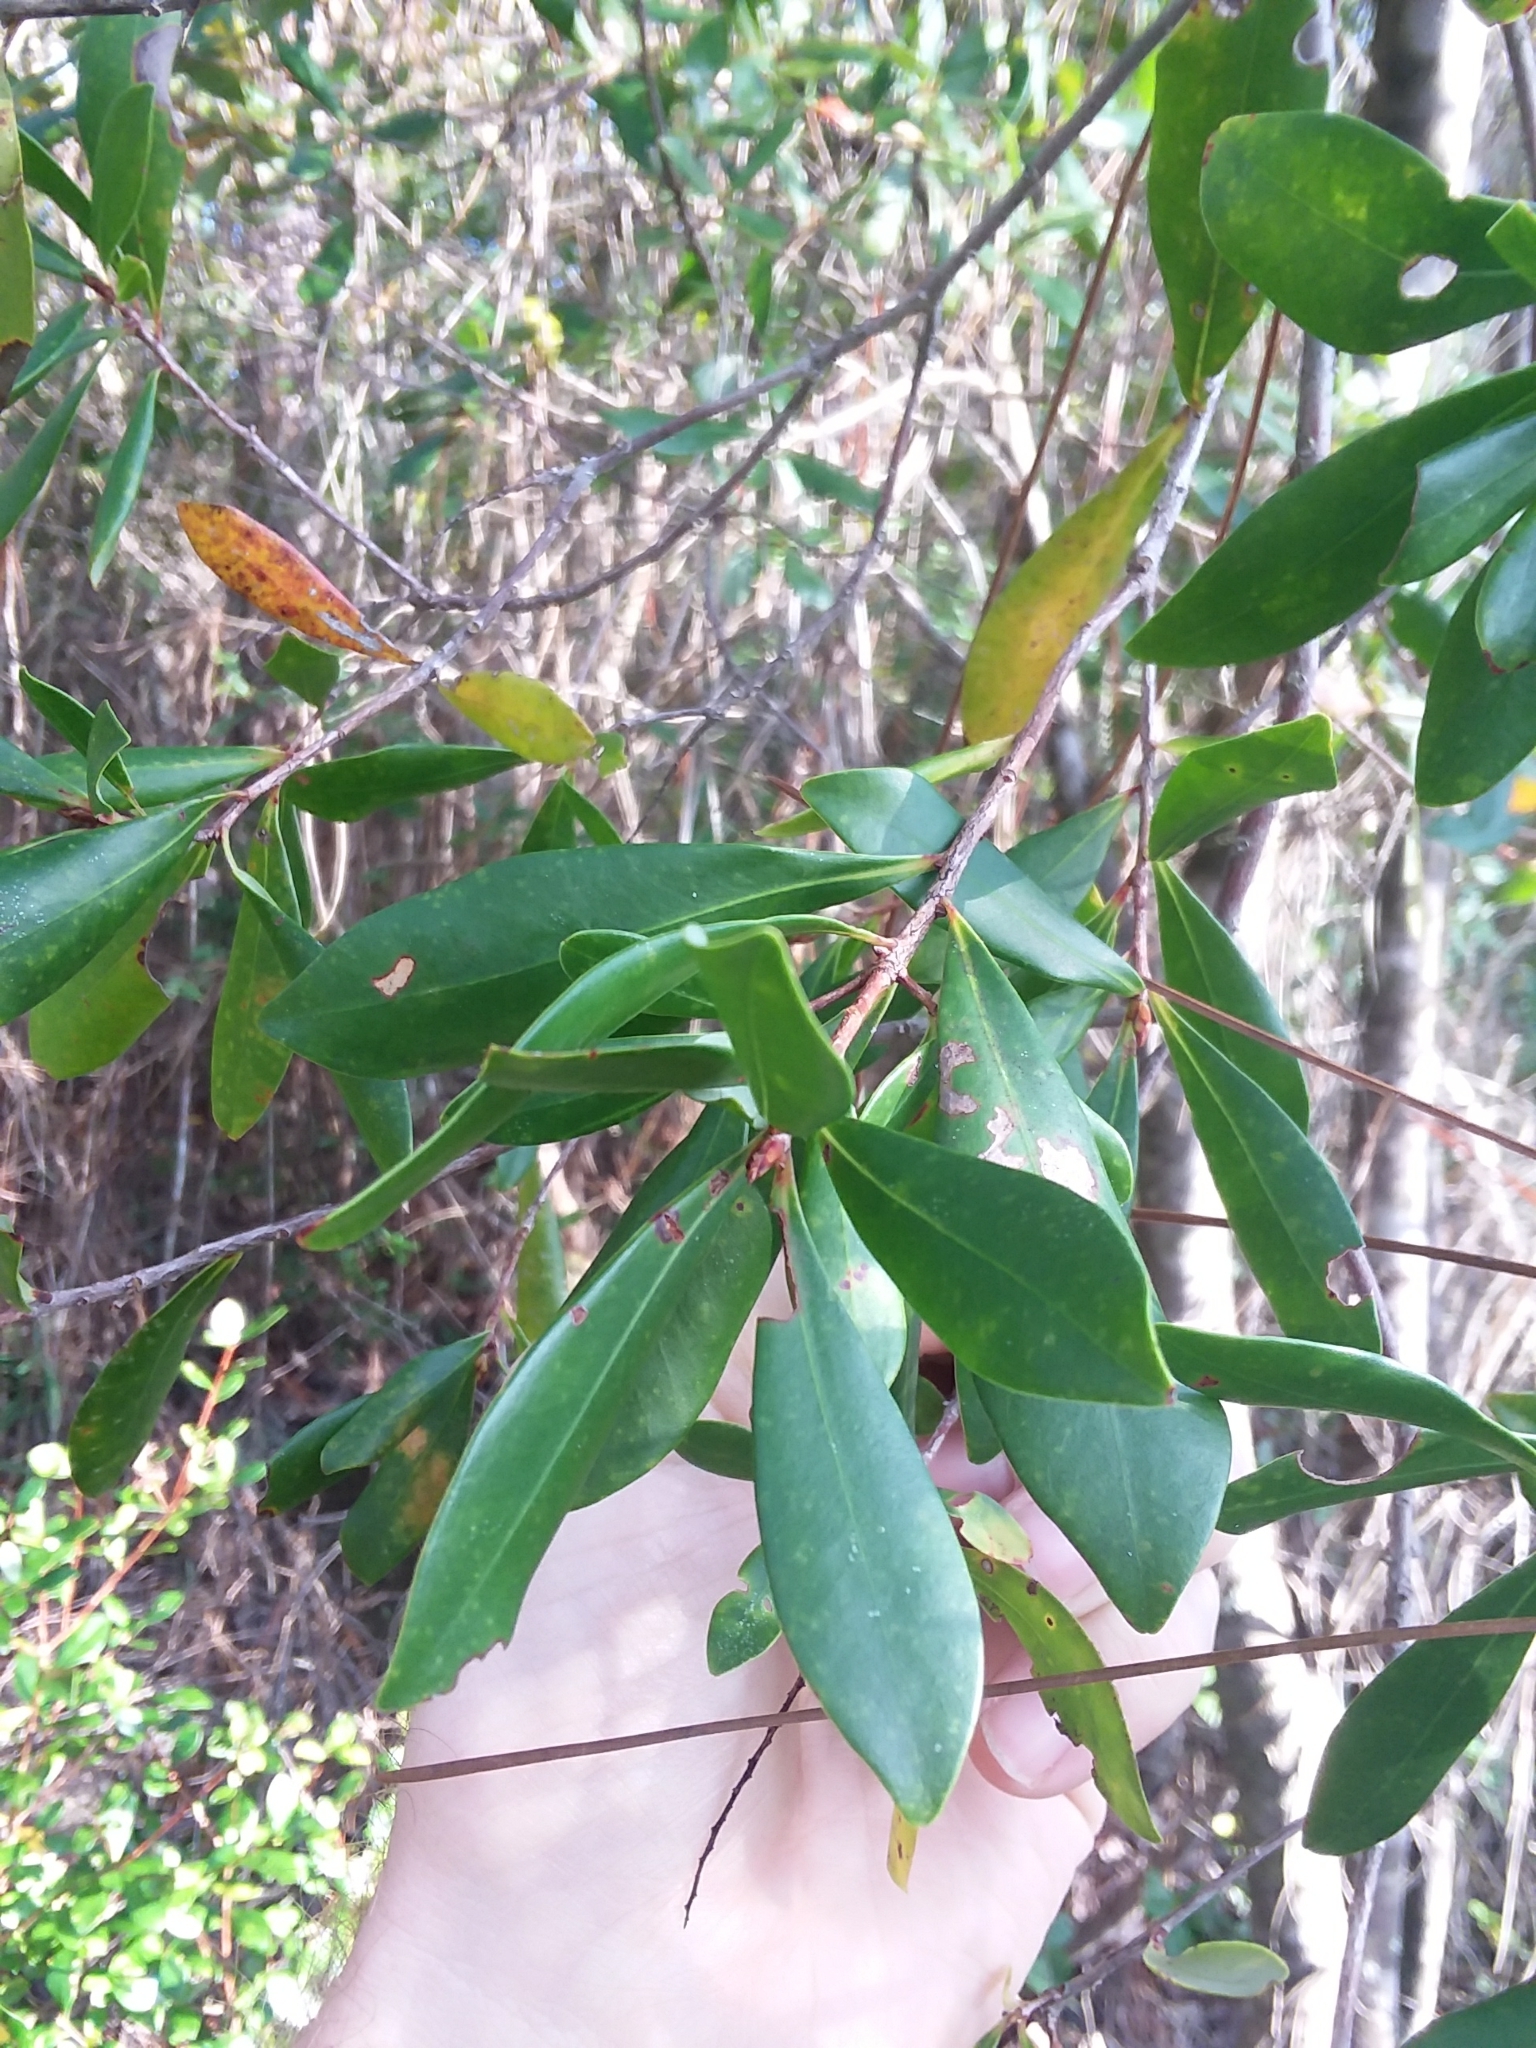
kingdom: Plantae
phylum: Tracheophyta
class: Magnoliopsida
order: Ericales
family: Cyrillaceae
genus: Cliftonia
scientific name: Cliftonia monophylla
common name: Titi
